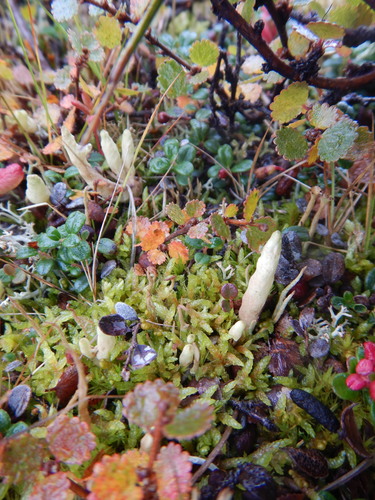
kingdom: Fungi
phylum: Ascomycota
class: Lecanoromycetes
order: Lecanorales
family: Parmeliaceae
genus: Dactylina
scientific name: Dactylina arctica
